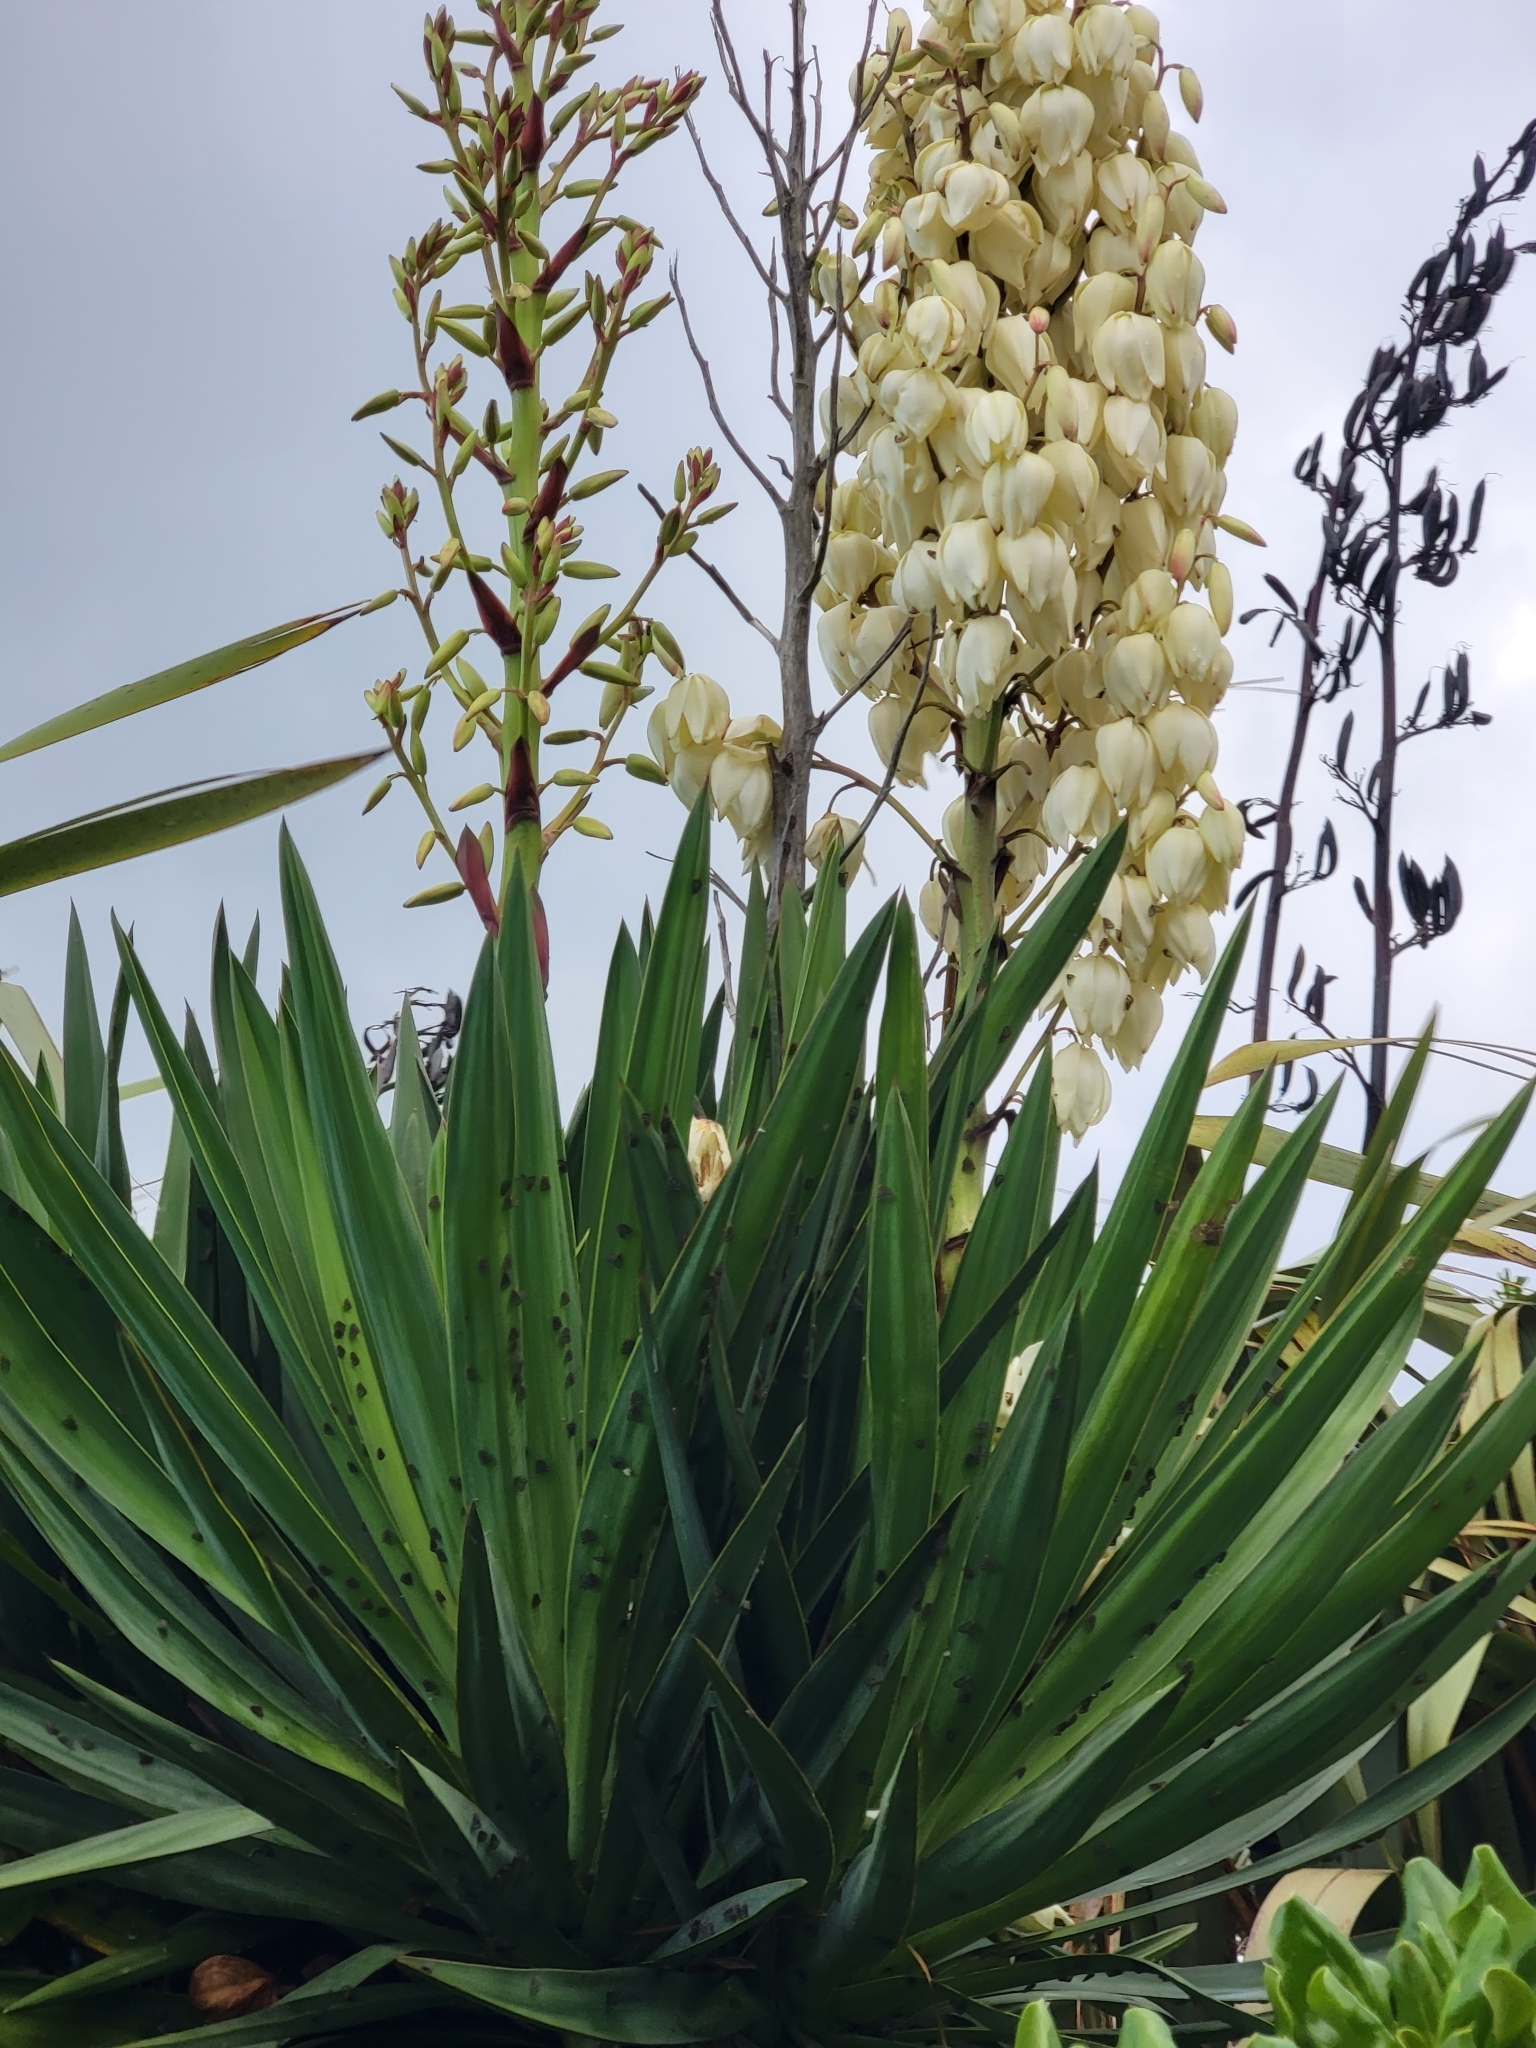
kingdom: Animalia
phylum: Arthropoda
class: Insecta
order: Hemiptera
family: Ricaniidae
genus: Scolypopa
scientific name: Scolypopa australis
